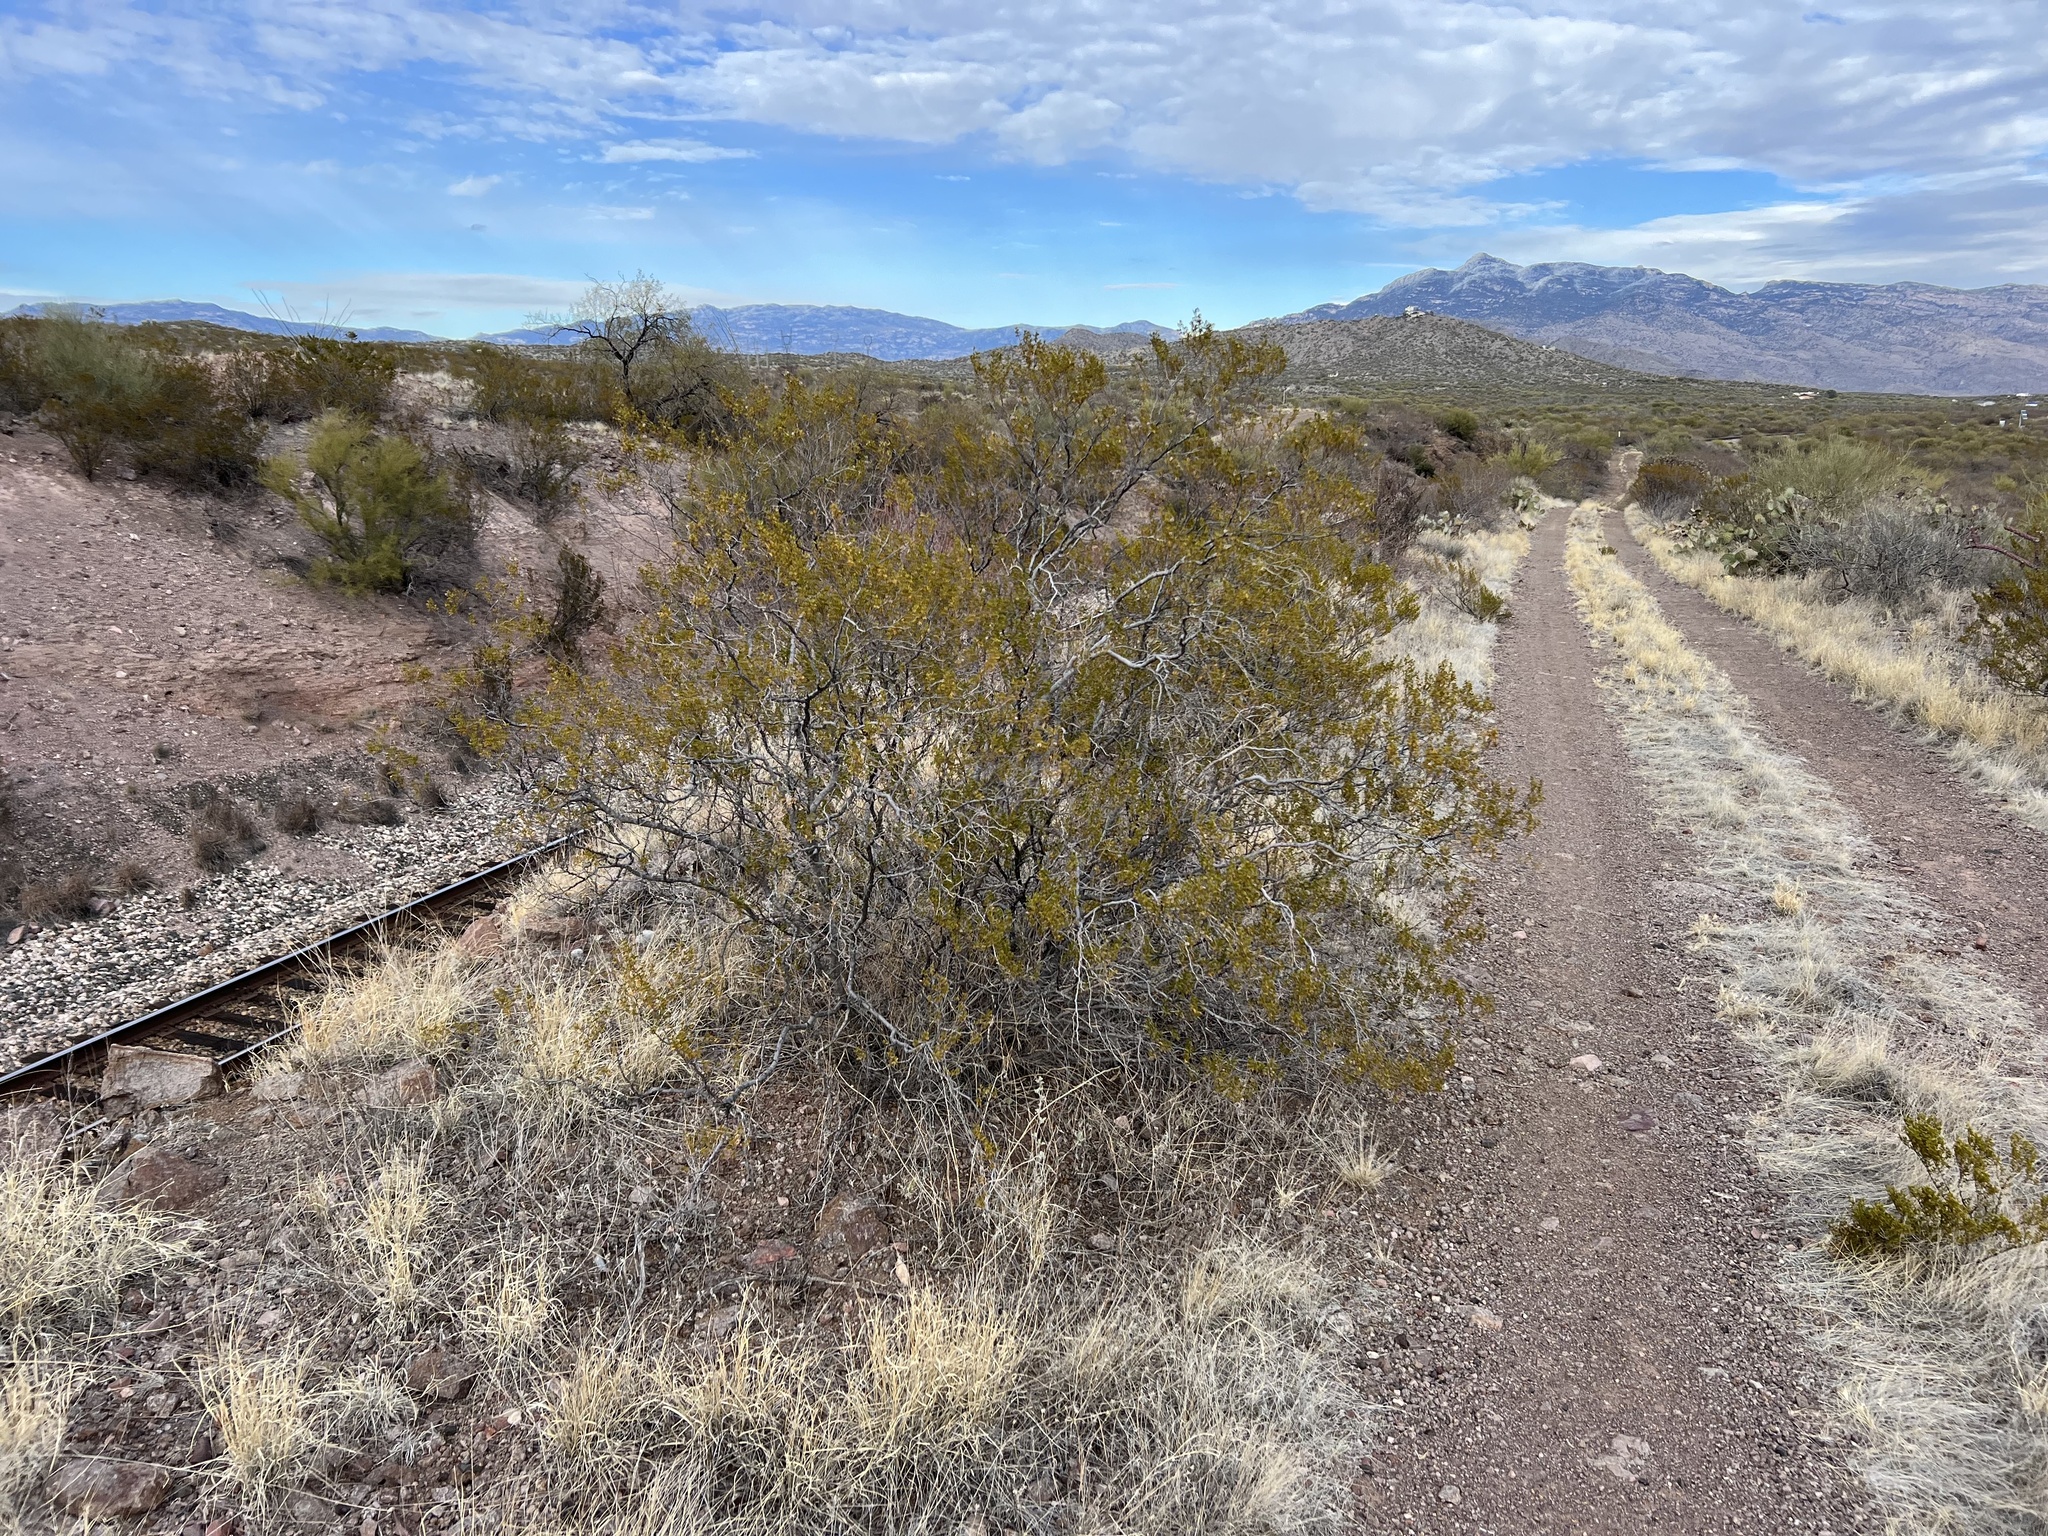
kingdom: Plantae
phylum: Tracheophyta
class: Magnoliopsida
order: Zygophyllales
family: Zygophyllaceae
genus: Larrea
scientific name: Larrea tridentata
